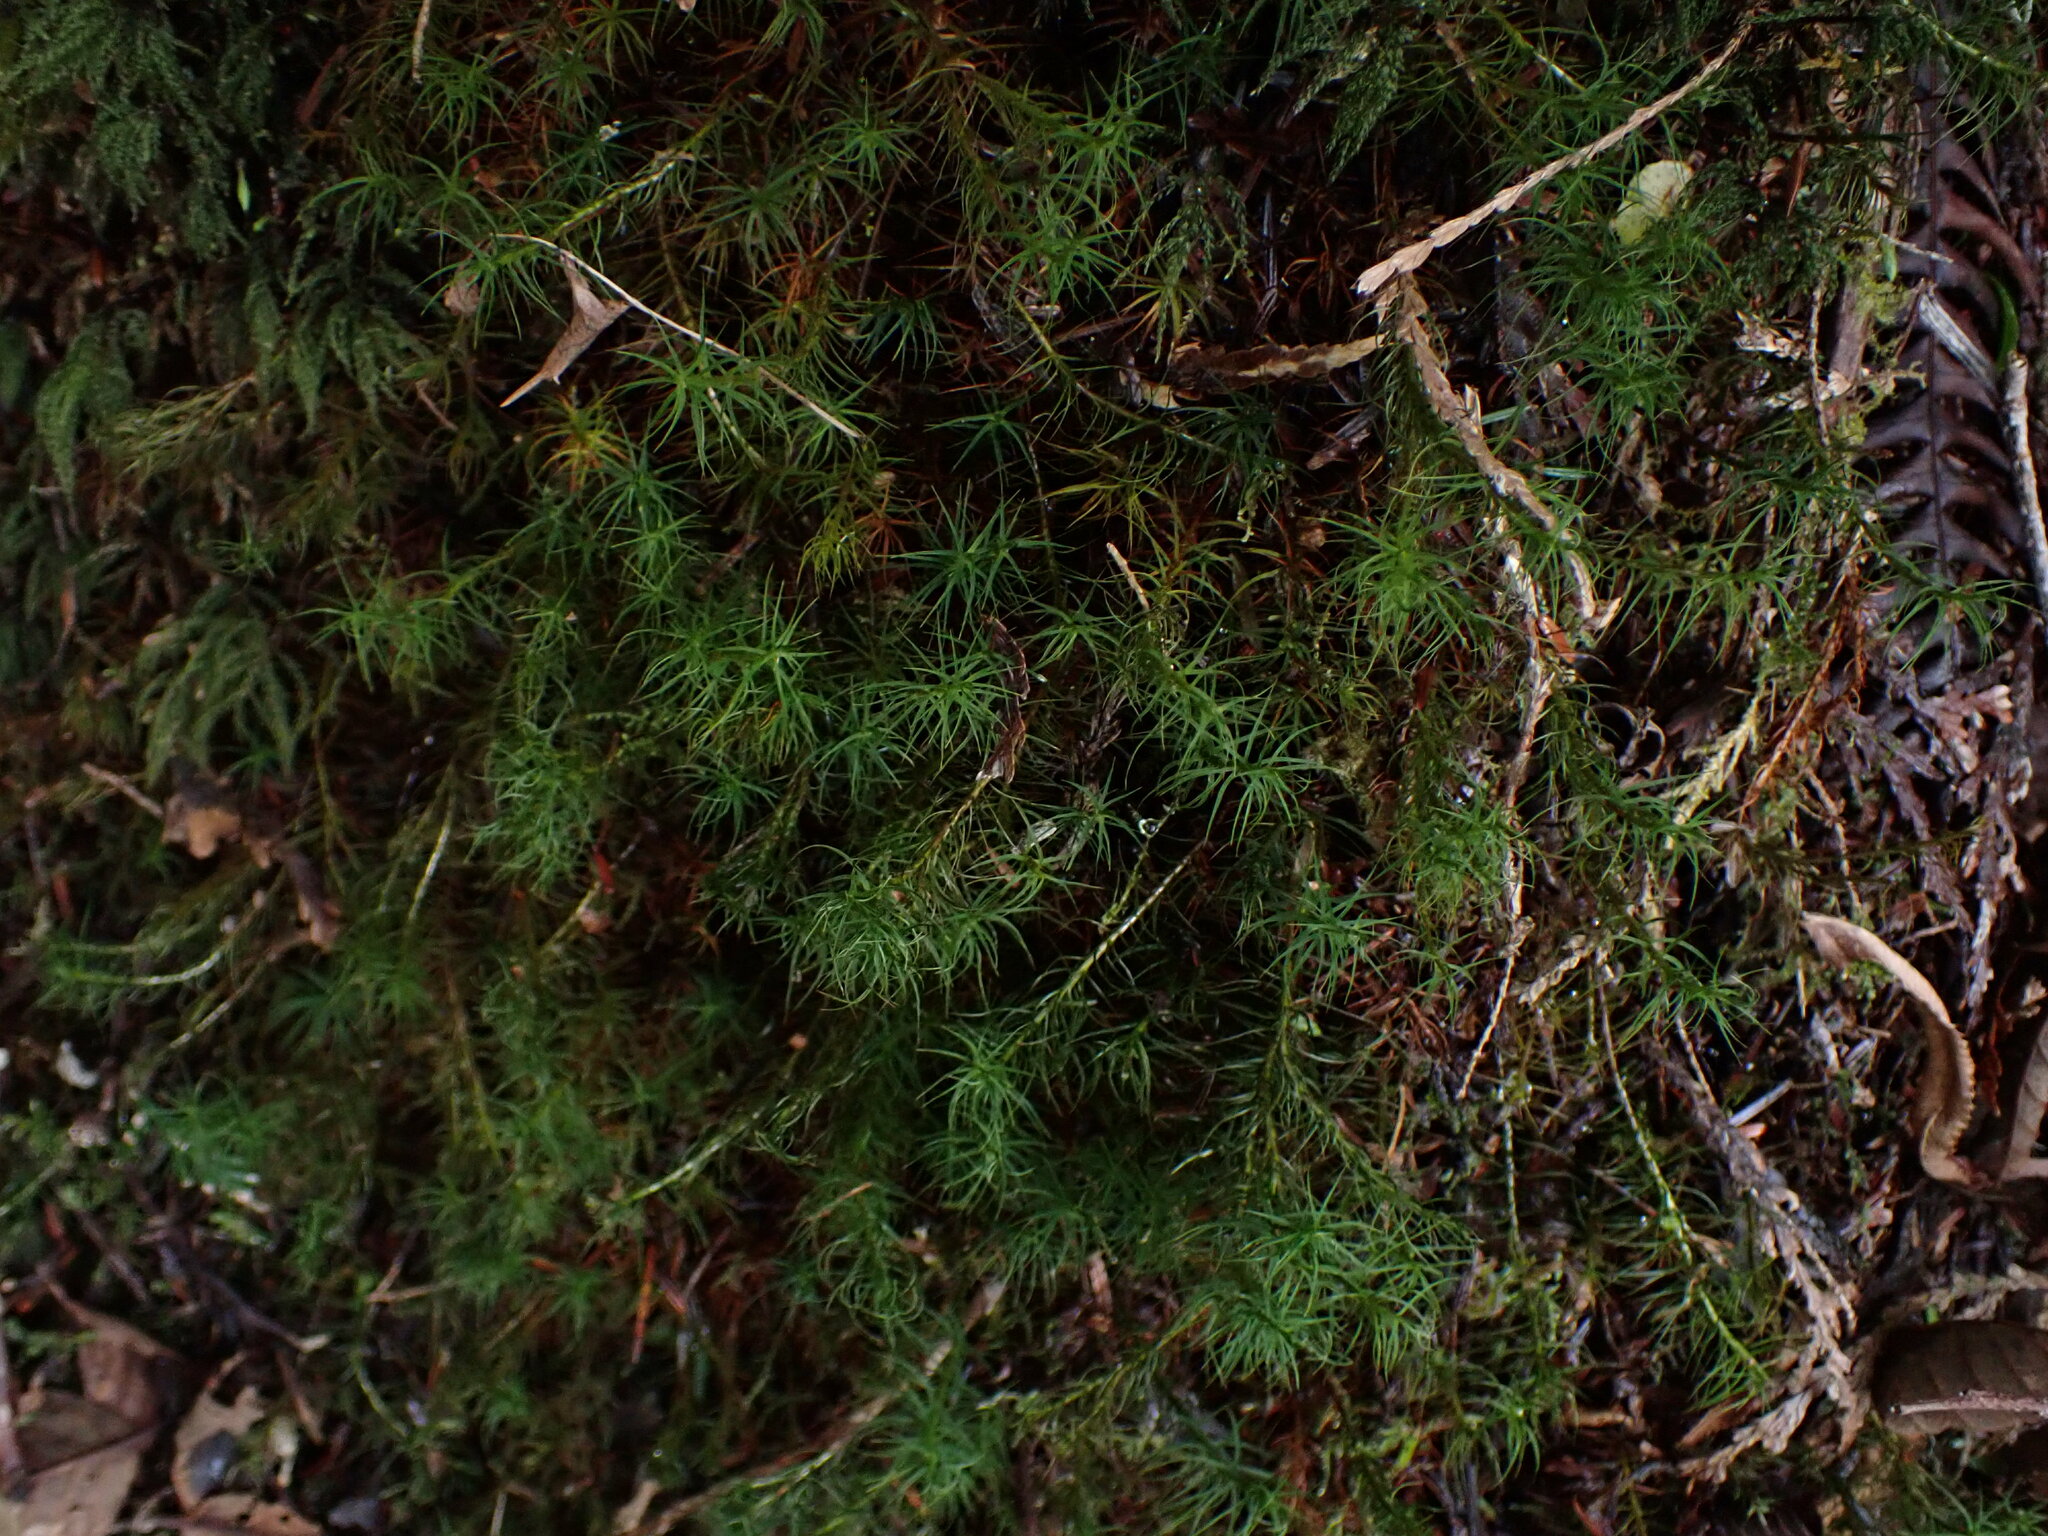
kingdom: Plantae
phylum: Bryophyta
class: Polytrichopsida
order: Polytrichales
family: Polytrichaceae
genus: Polytrichastrum
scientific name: Polytrichastrum alpinum
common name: Alpine haircap
